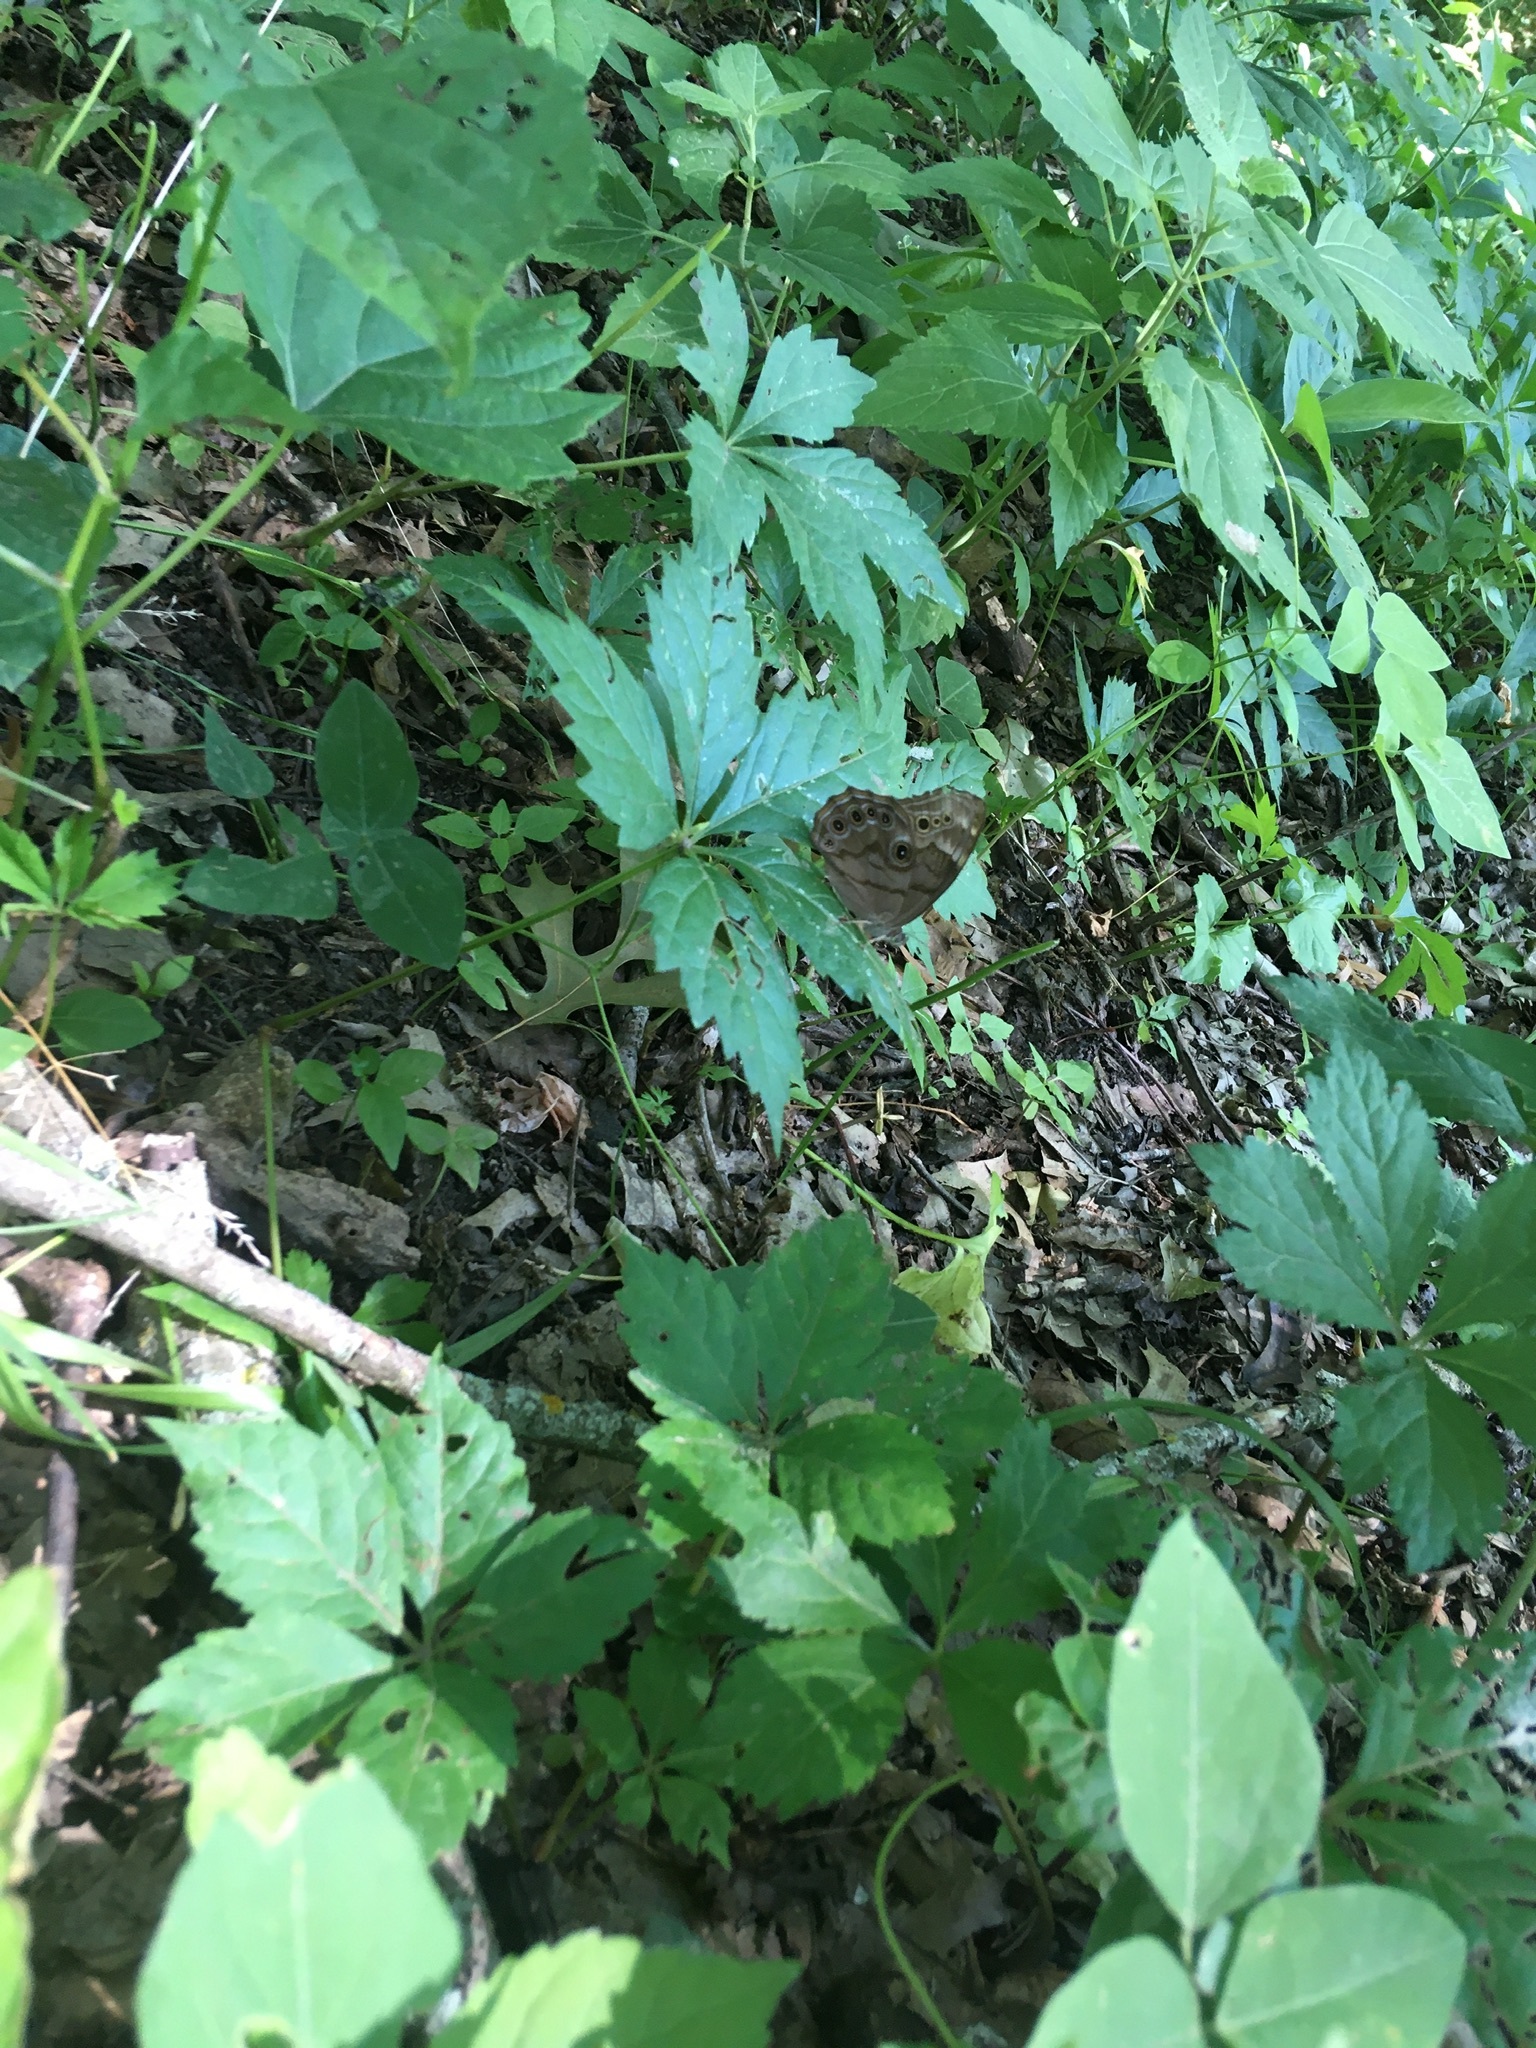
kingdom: Animalia
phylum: Arthropoda
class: Insecta
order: Lepidoptera
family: Nymphalidae
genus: Lethe
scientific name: Lethe anthedon
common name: Northern pearly-eye
